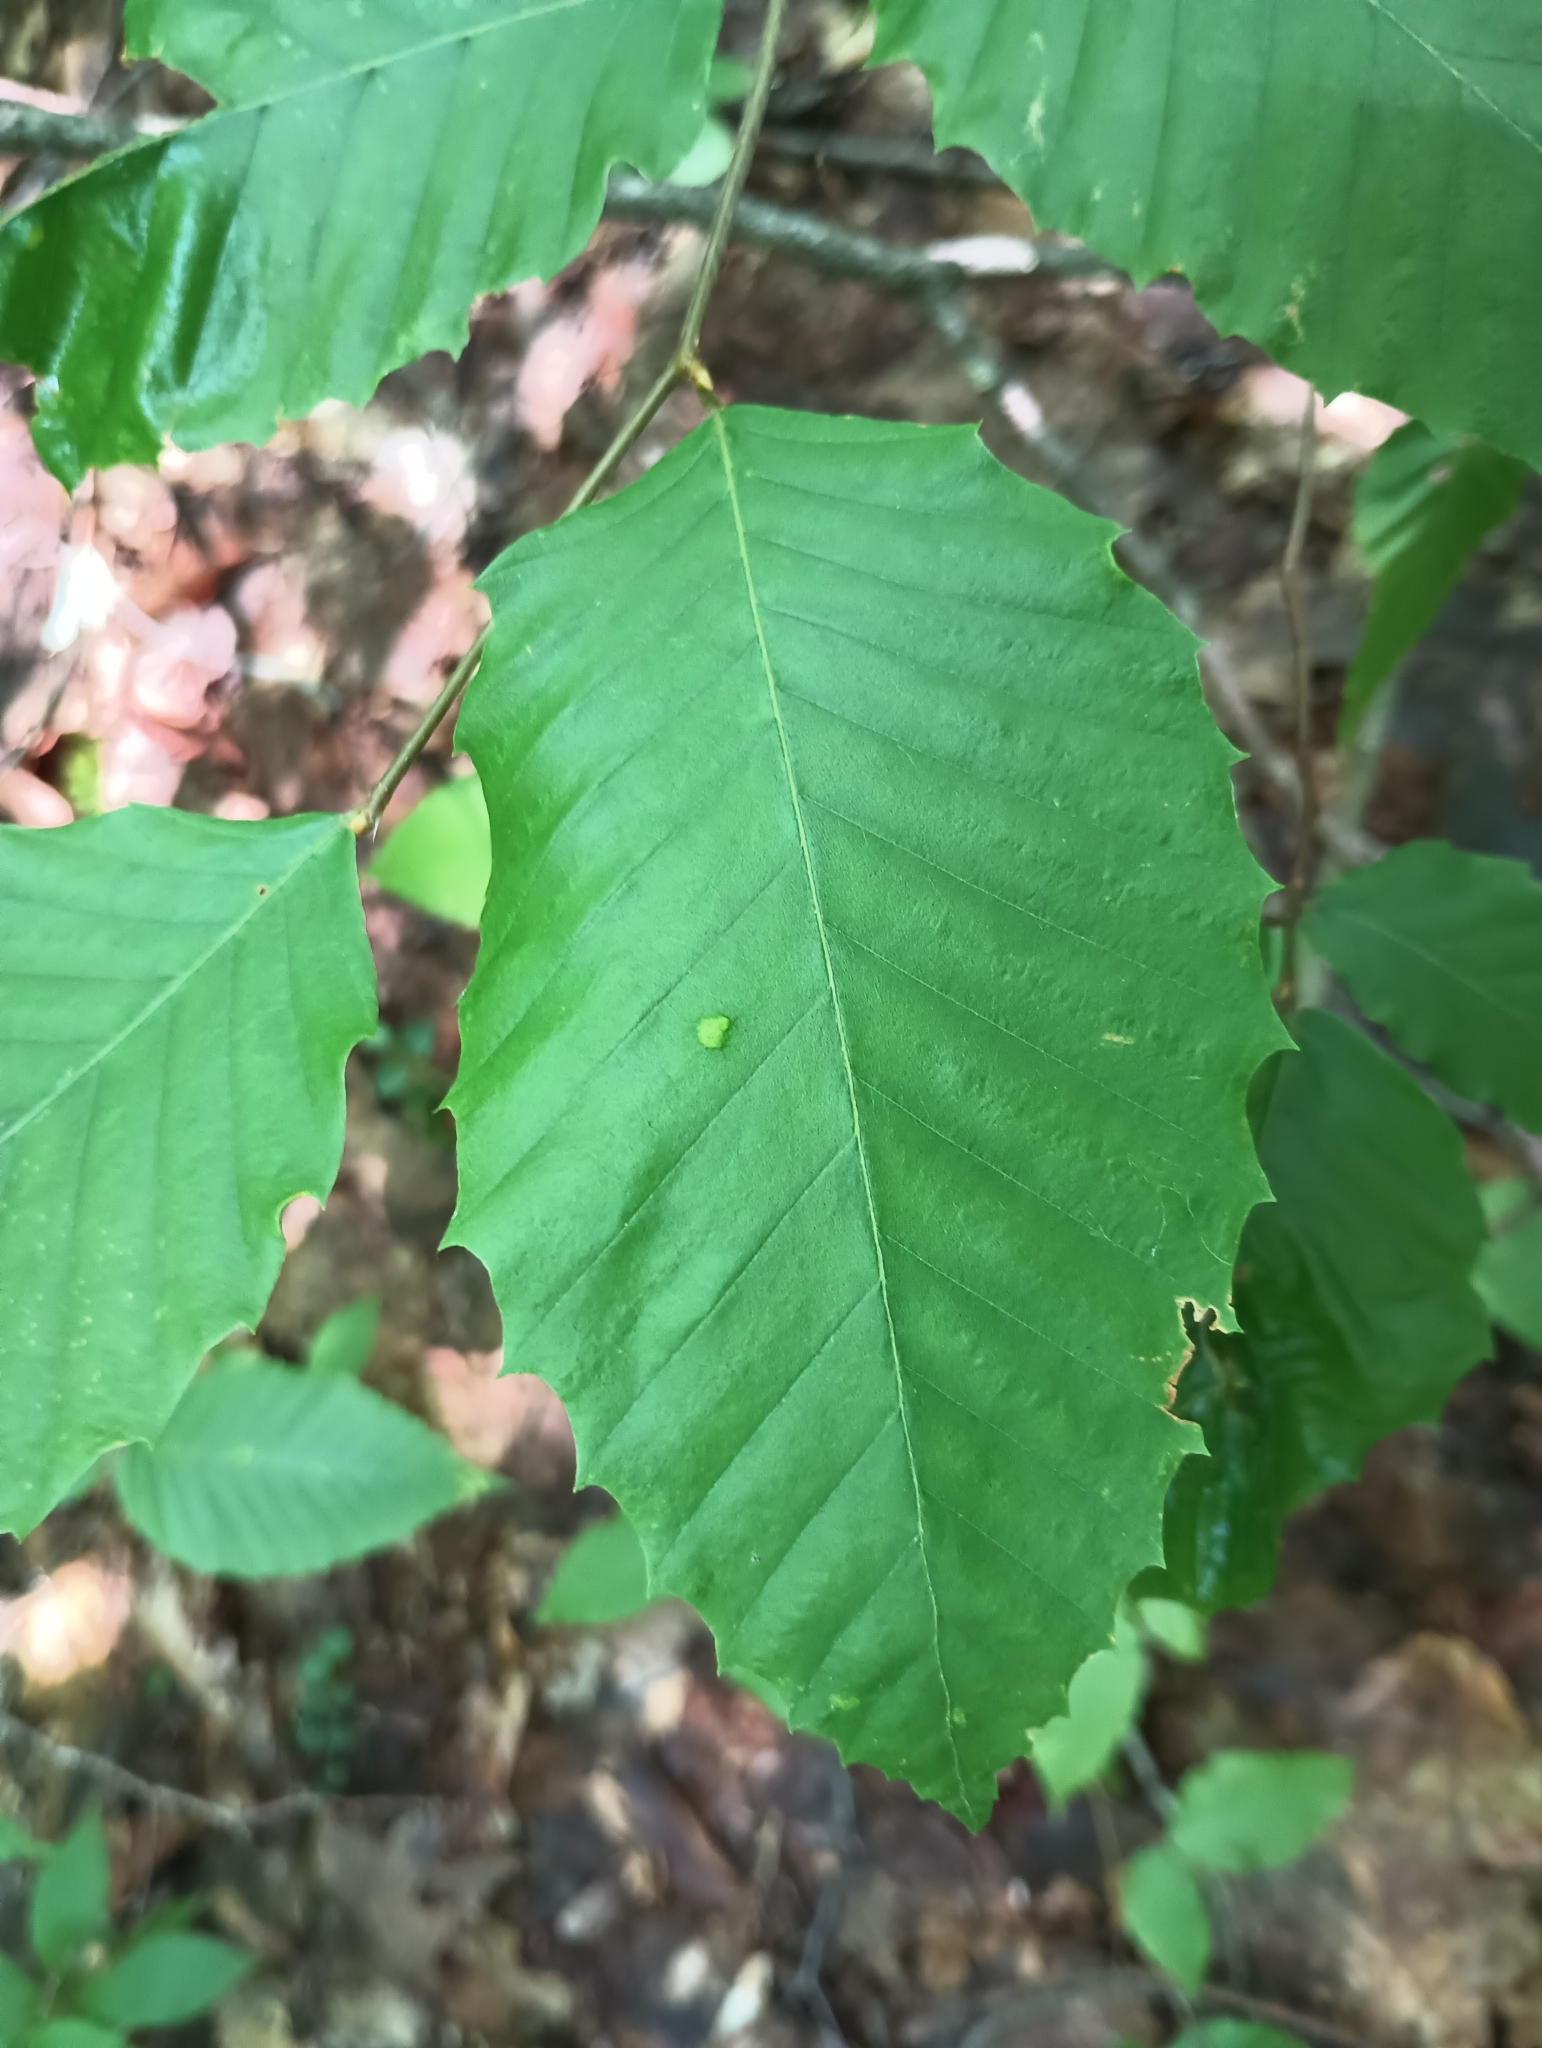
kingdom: Plantae
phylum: Tracheophyta
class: Magnoliopsida
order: Fagales
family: Fagaceae
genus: Fagus
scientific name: Fagus grandifolia
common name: American beech
